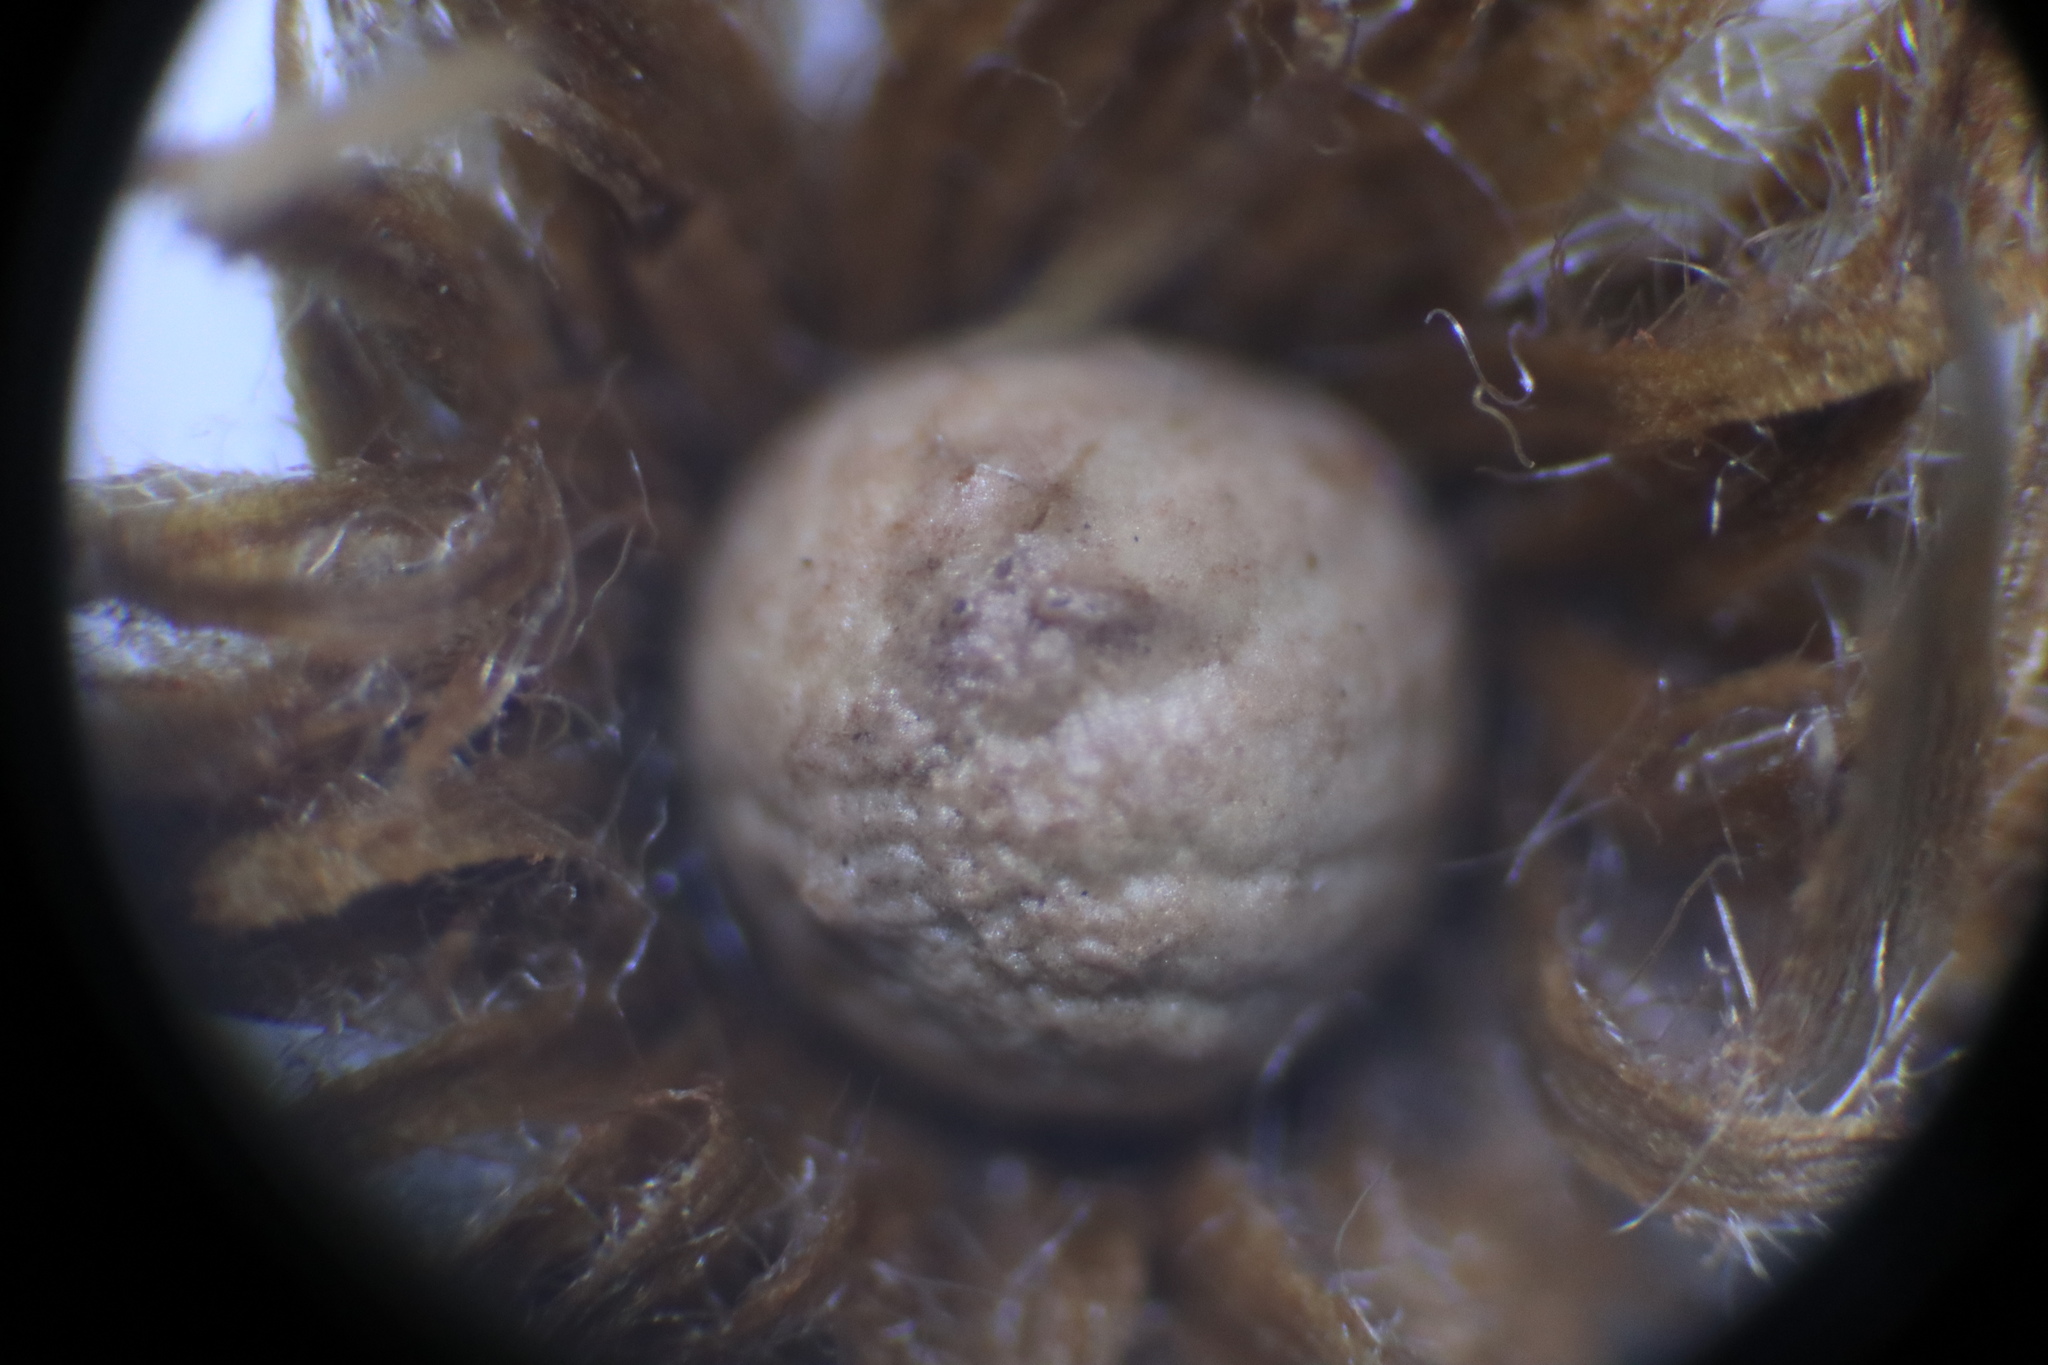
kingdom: Animalia
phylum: Arthropoda
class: Insecta
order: Hymenoptera
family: Cynipidae
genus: Andricus
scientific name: Andricus
